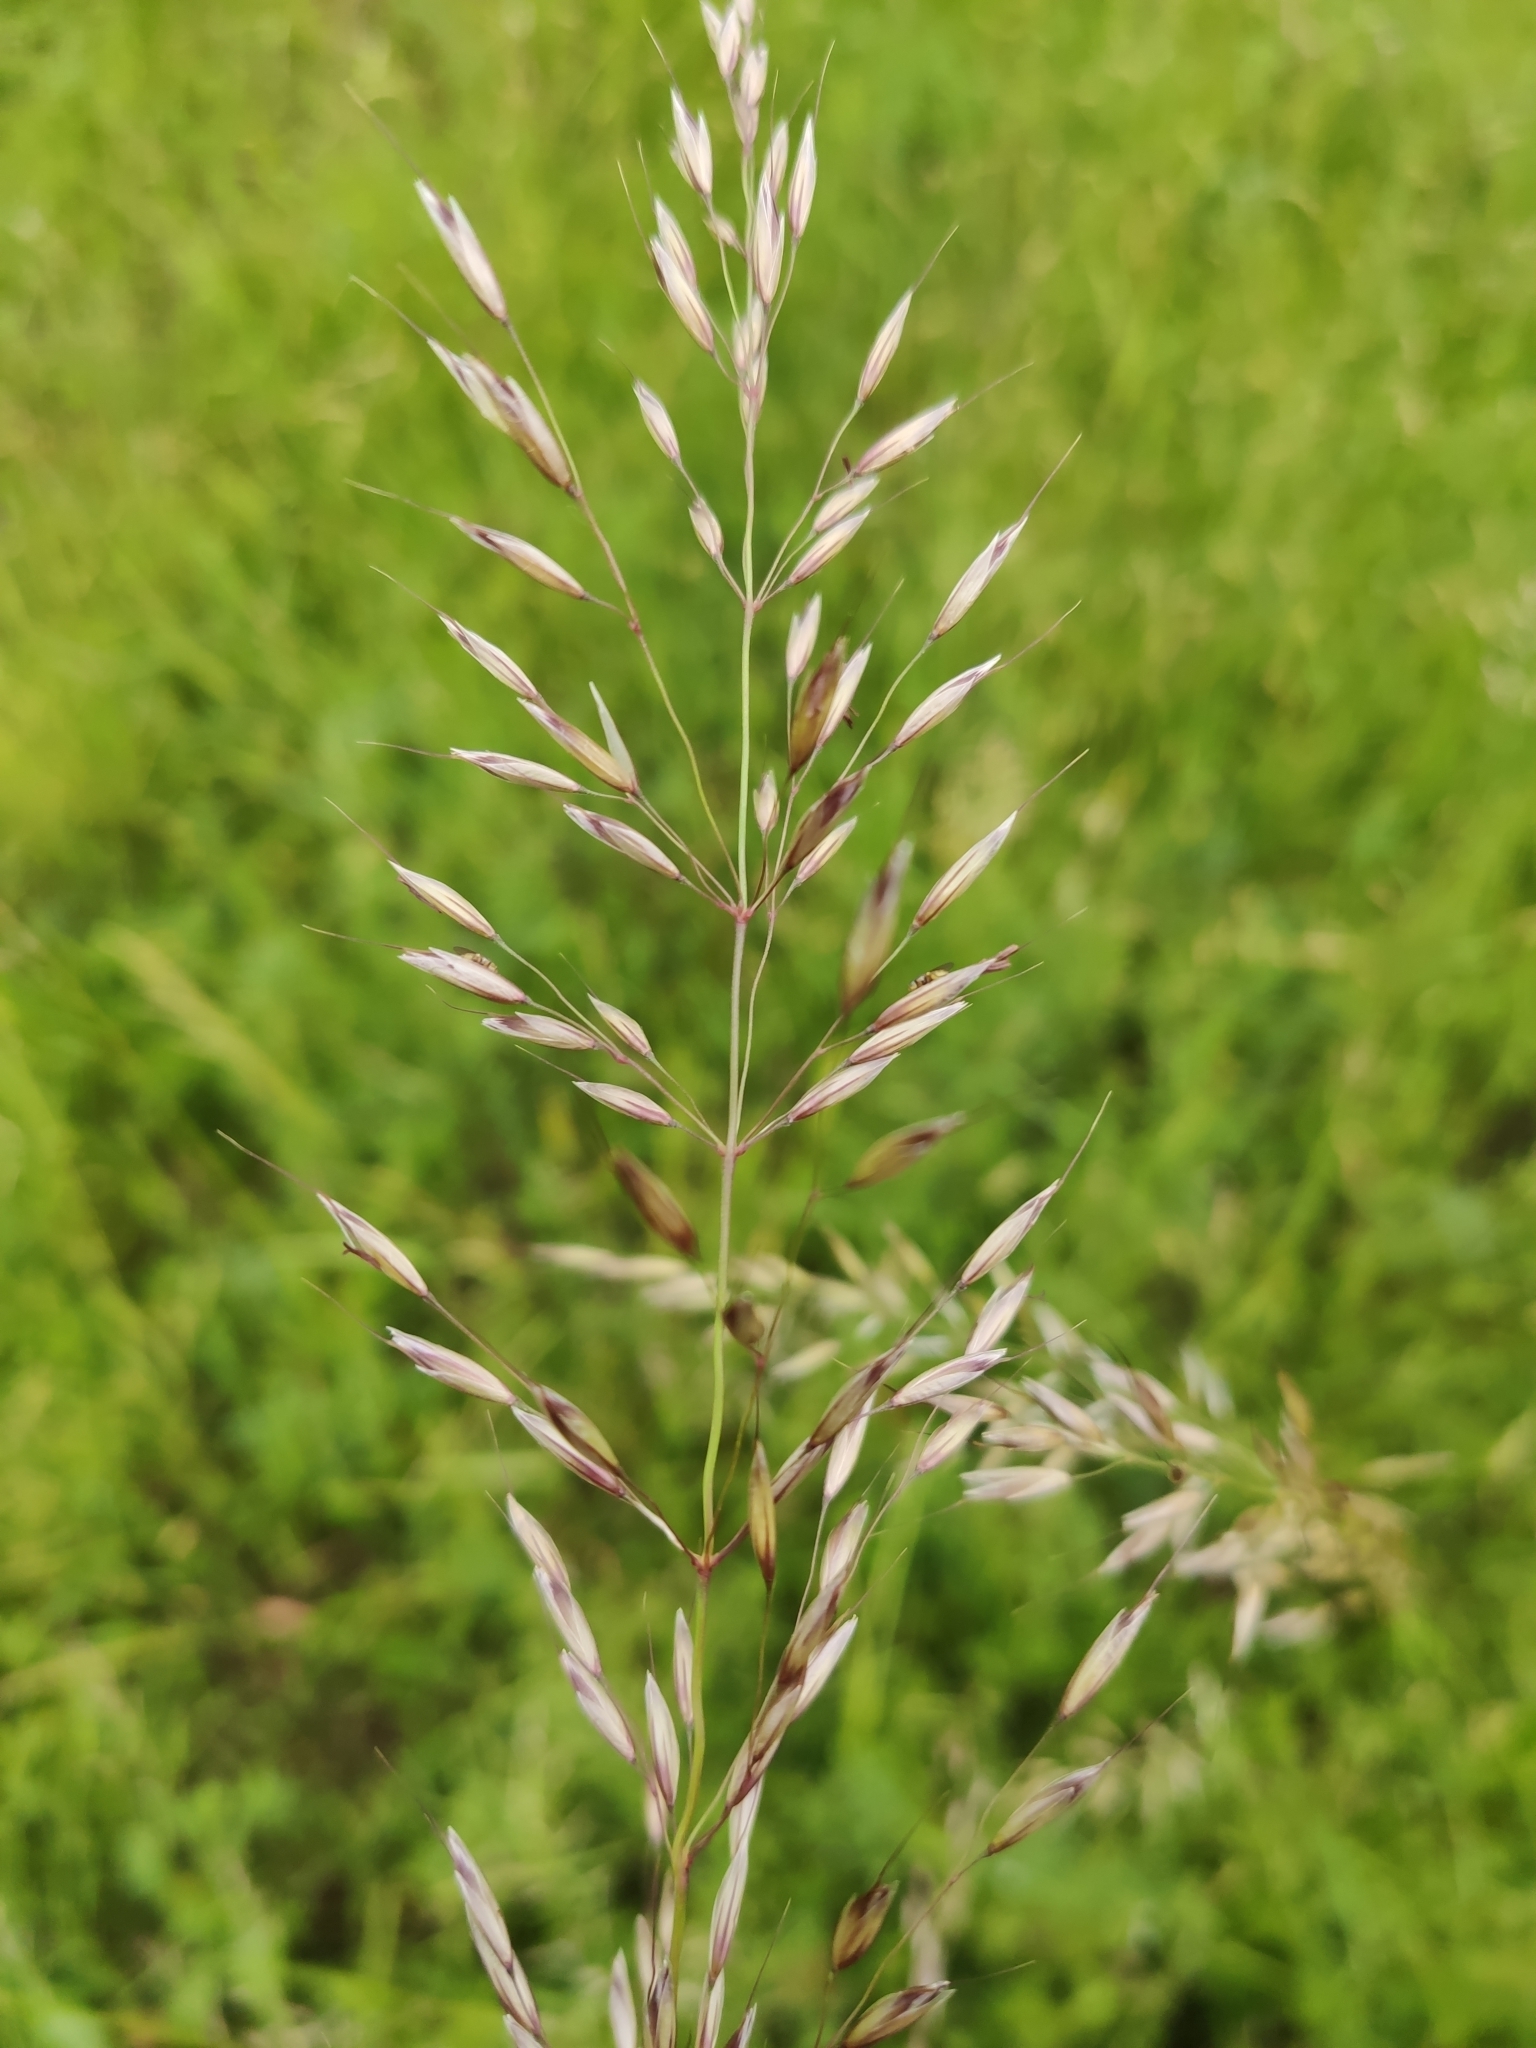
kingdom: Plantae
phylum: Tracheophyta
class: Liliopsida
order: Poales
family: Poaceae
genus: Arrhenatherum
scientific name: Arrhenatherum elatius
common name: Tall oatgrass
